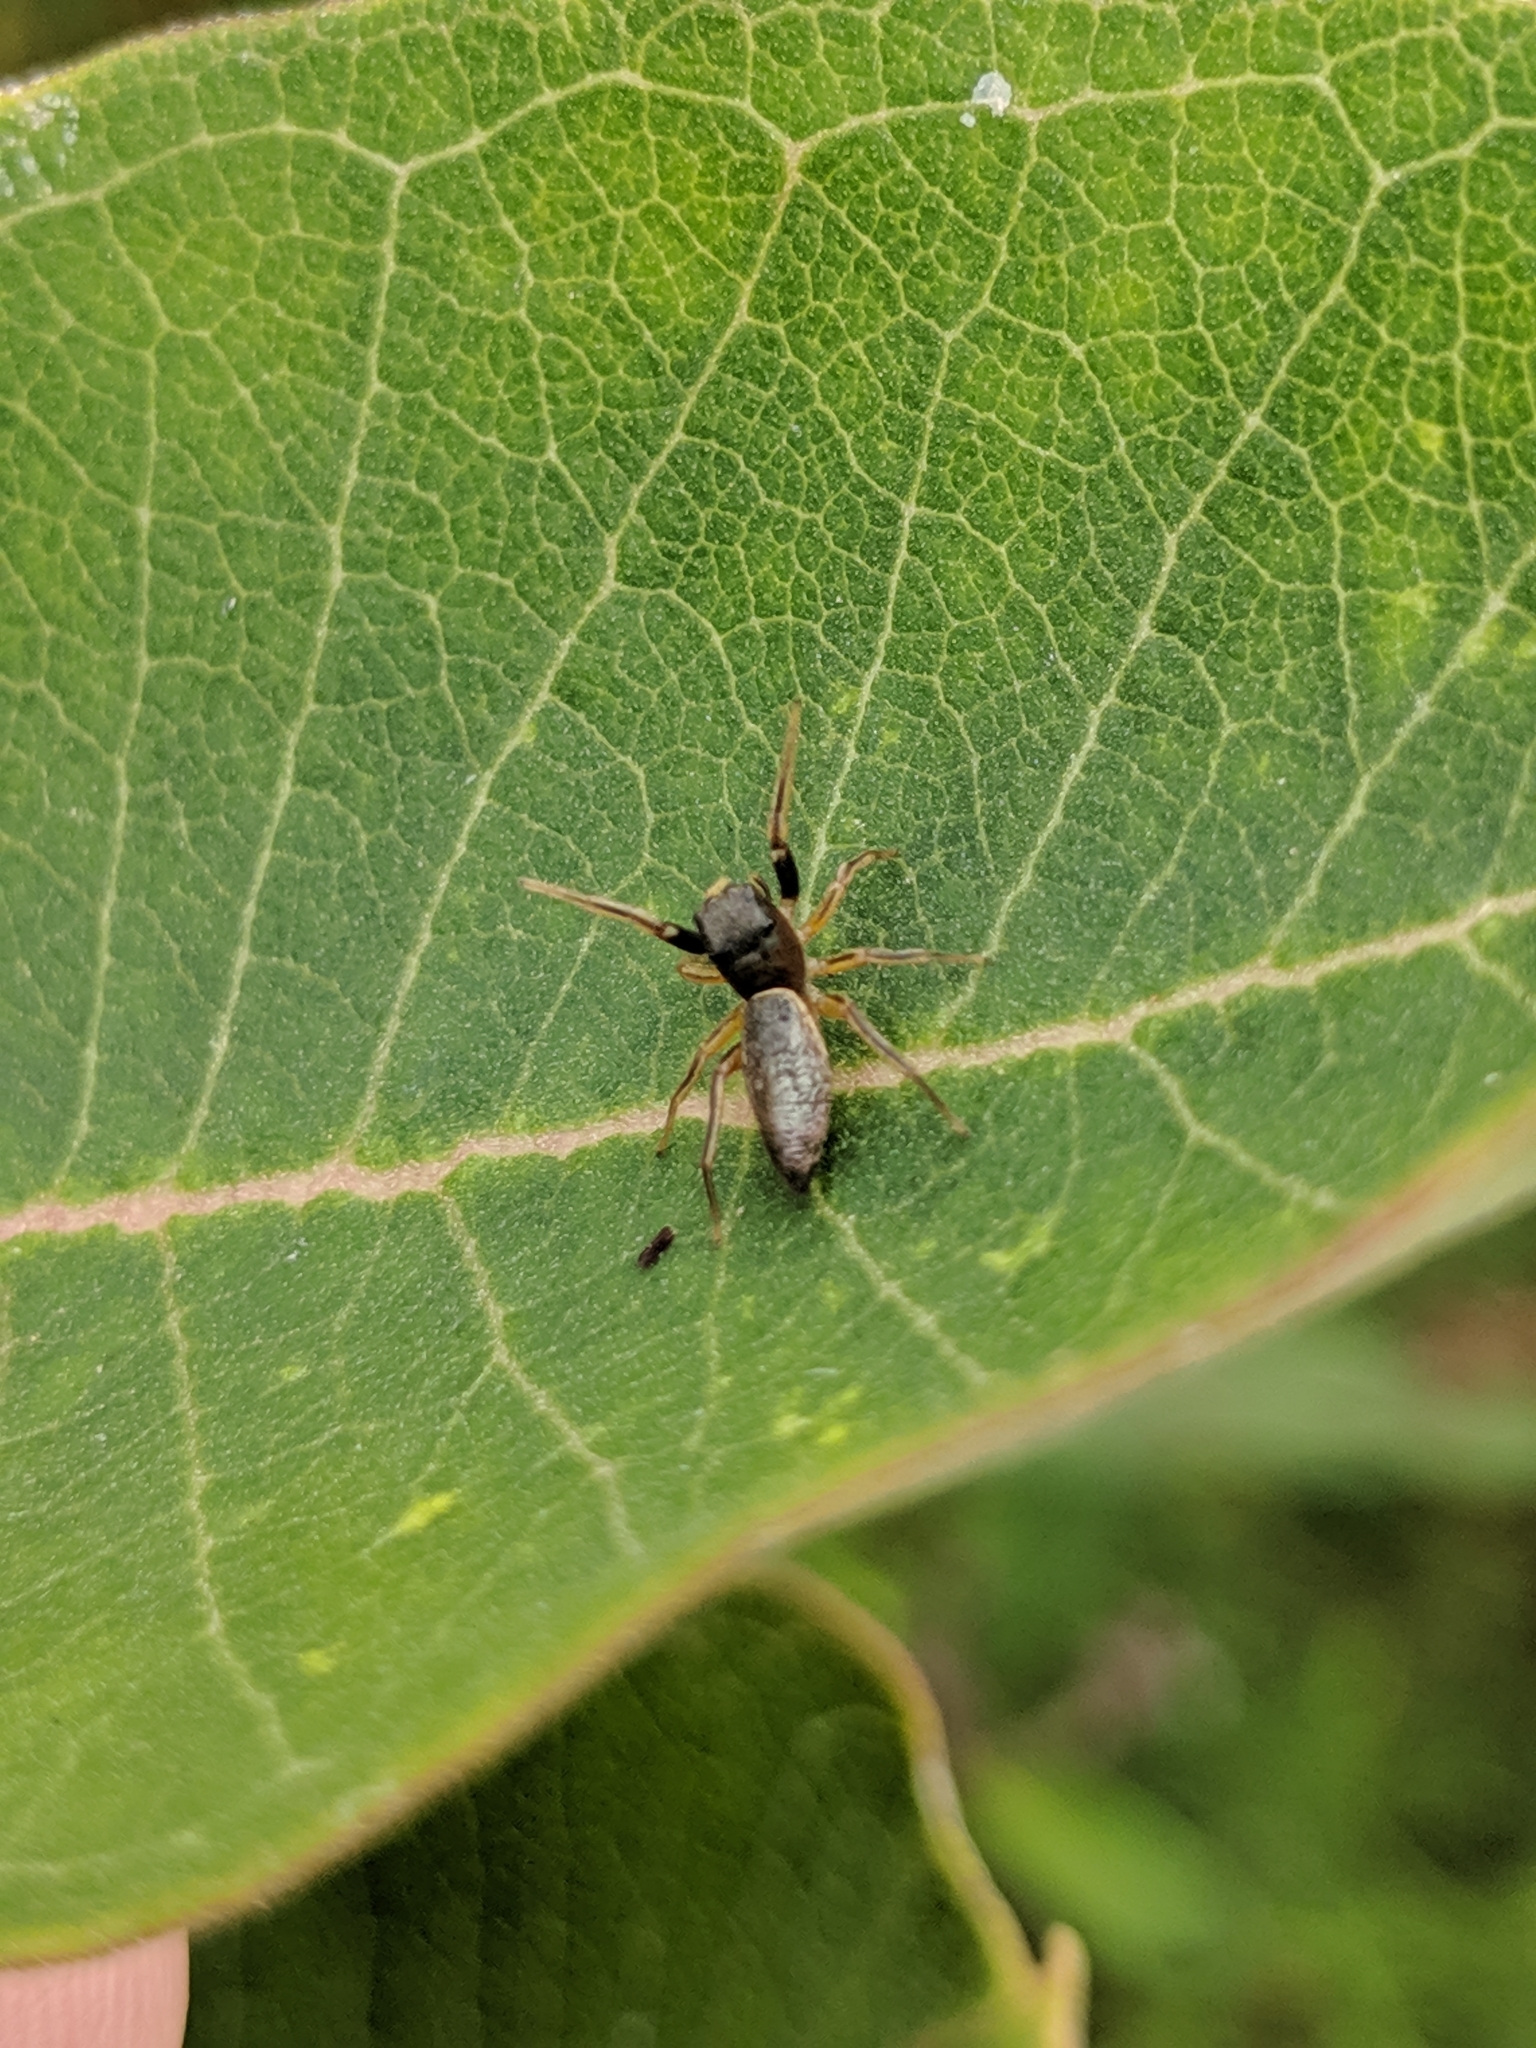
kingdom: Animalia
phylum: Arthropoda
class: Arachnida
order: Araneae
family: Salticidae
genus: Tutelina
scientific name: Tutelina elegans
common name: Thin-spined jumping spider
